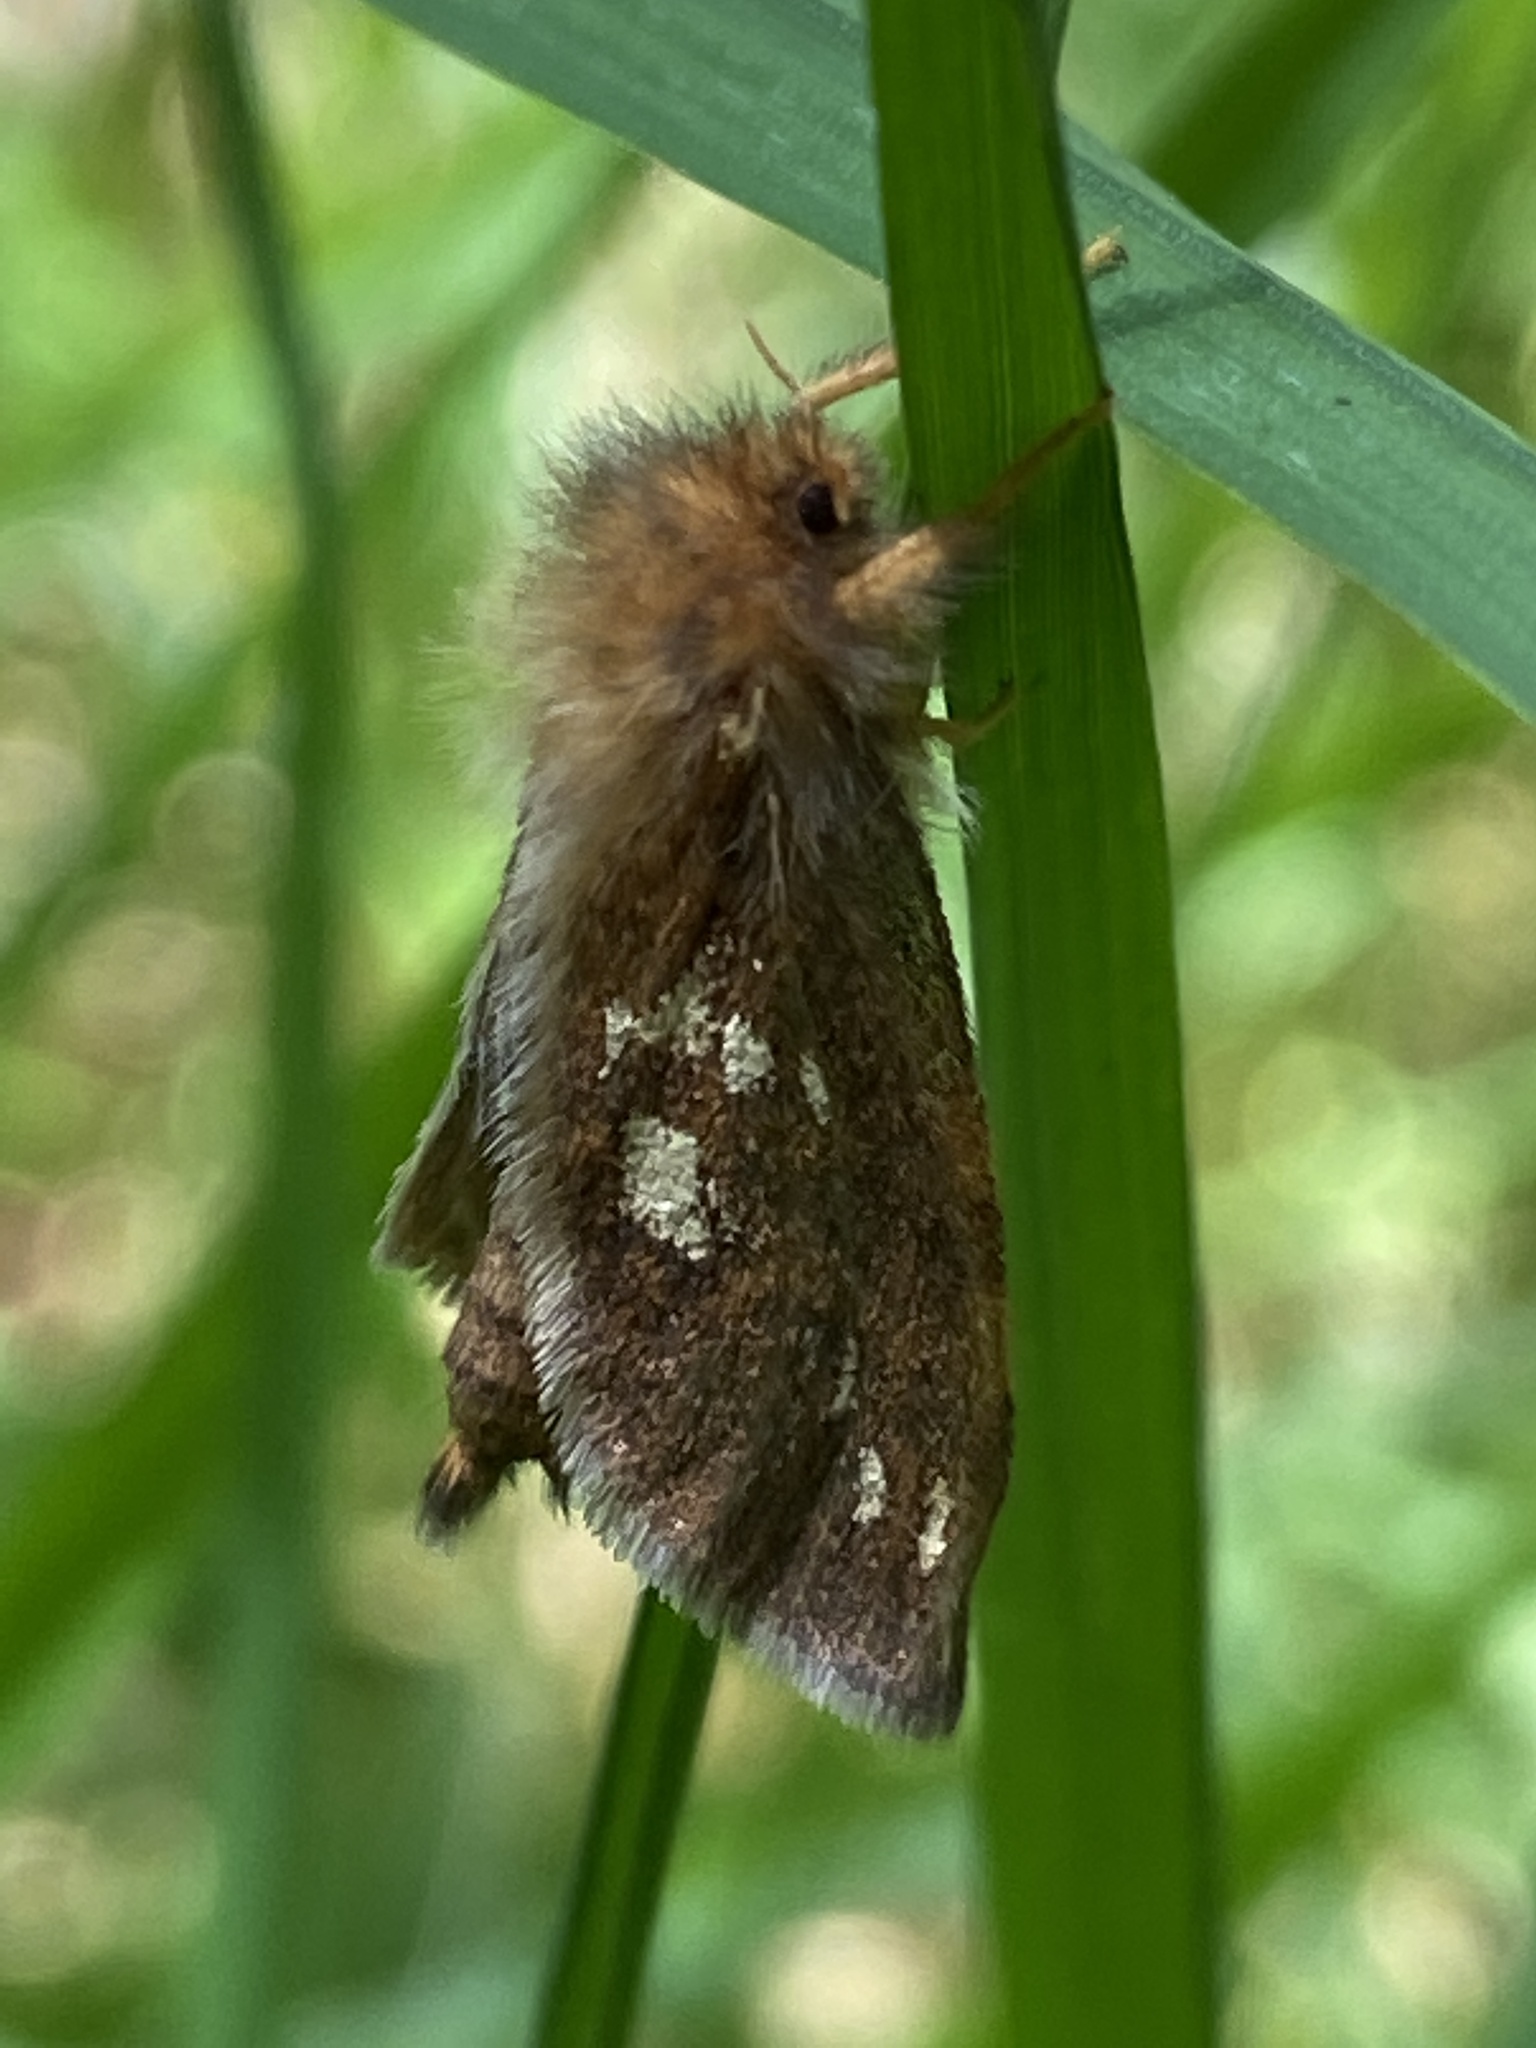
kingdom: Animalia
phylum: Arthropoda
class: Insecta
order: Lepidoptera
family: Hepialidae
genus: Phymatopus
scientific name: Phymatopus hecta
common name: Gold swift
